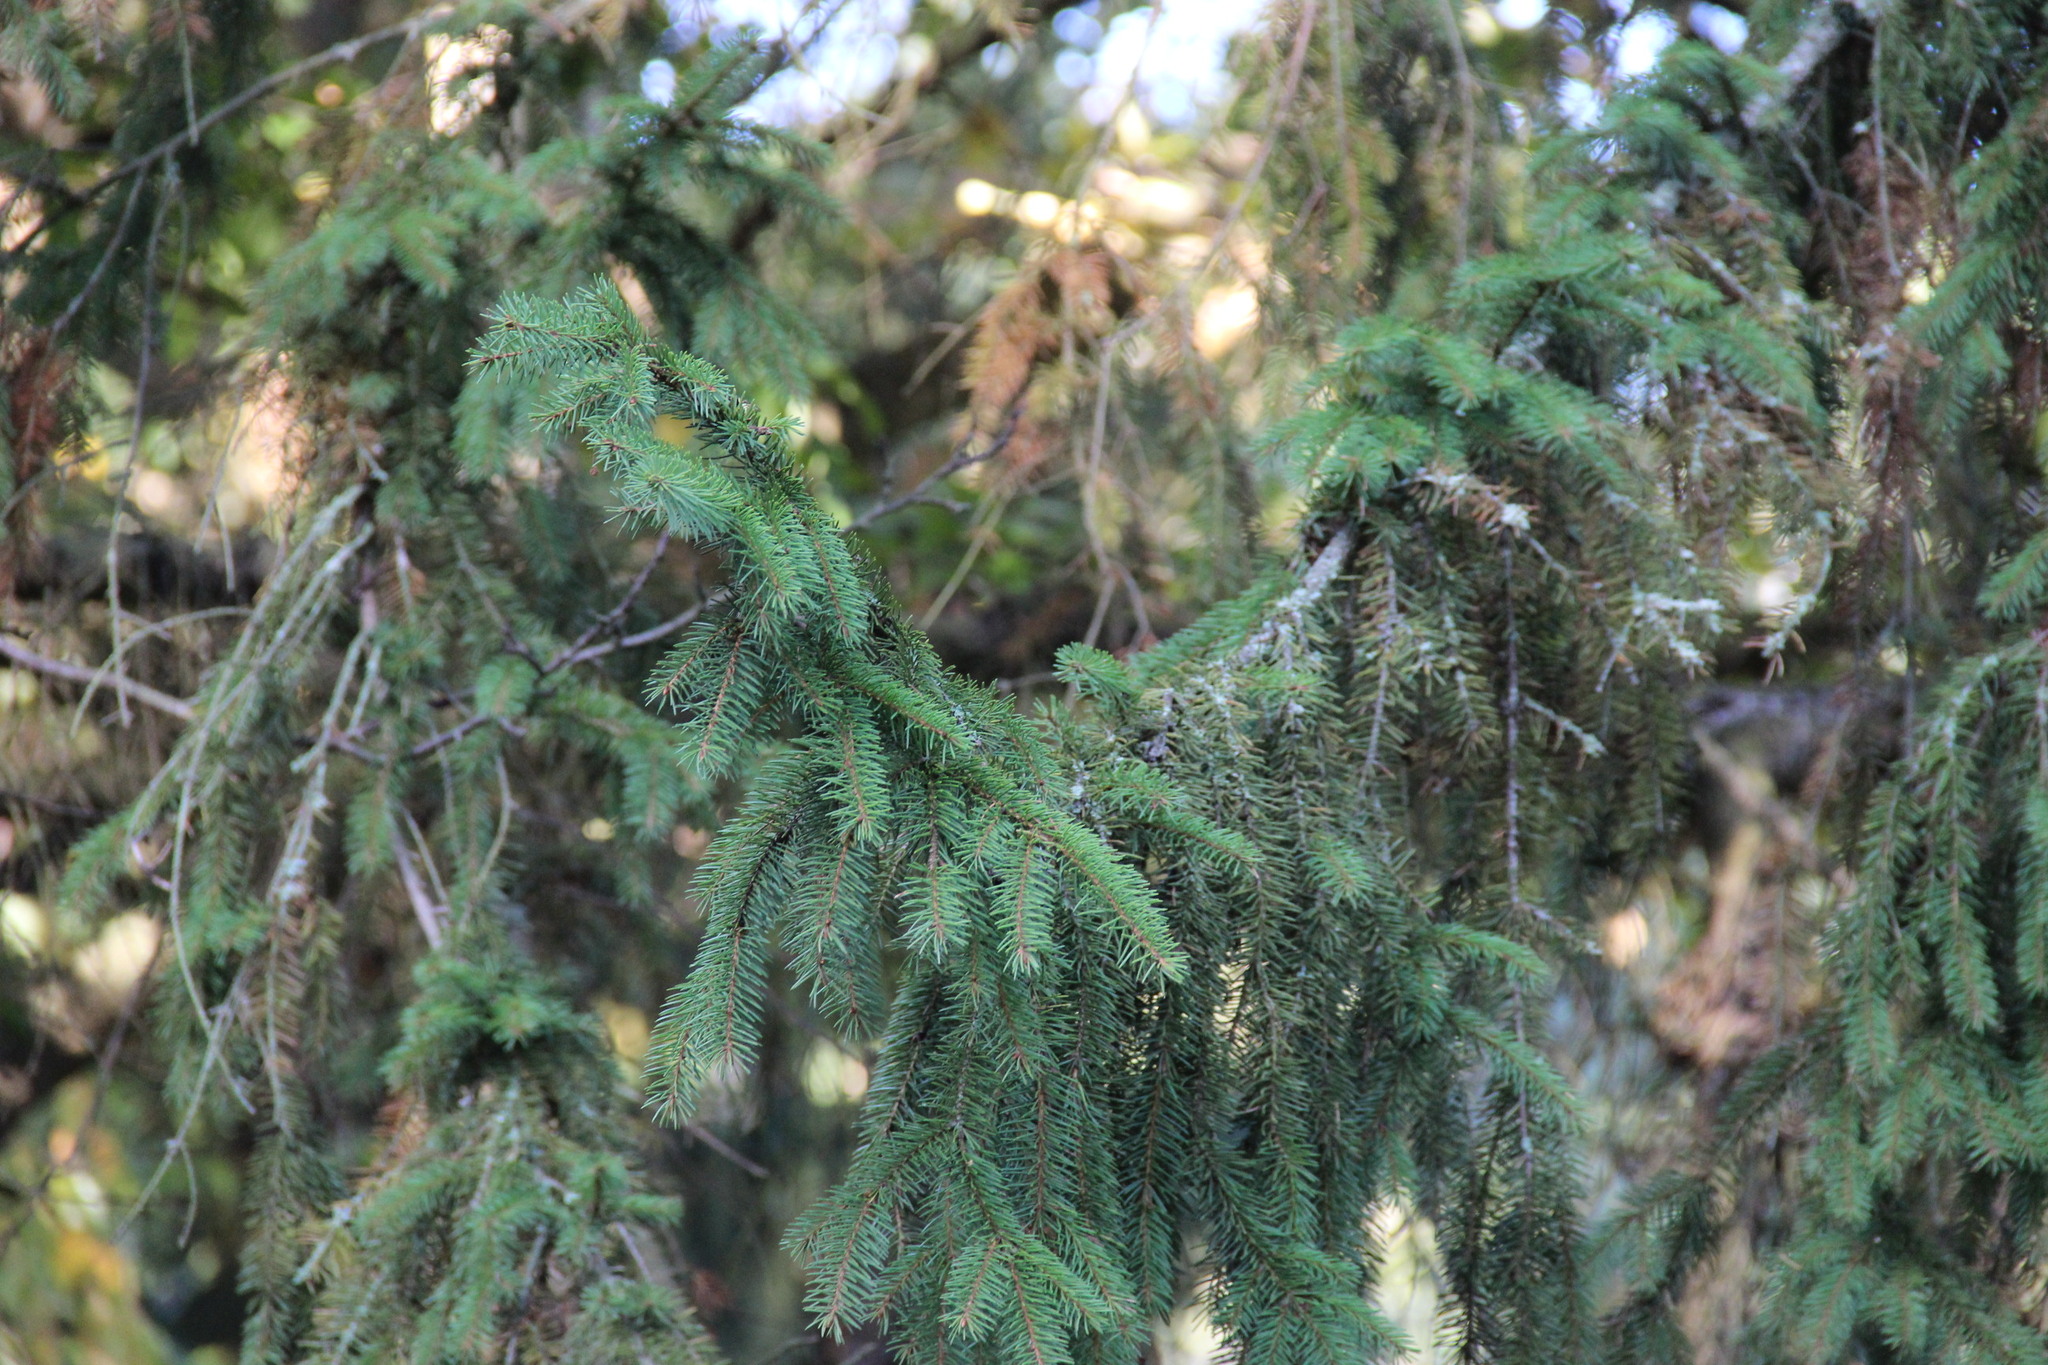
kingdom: Plantae
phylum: Tracheophyta
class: Pinopsida
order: Pinales
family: Pinaceae
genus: Picea
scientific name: Picea abies
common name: Norway spruce
